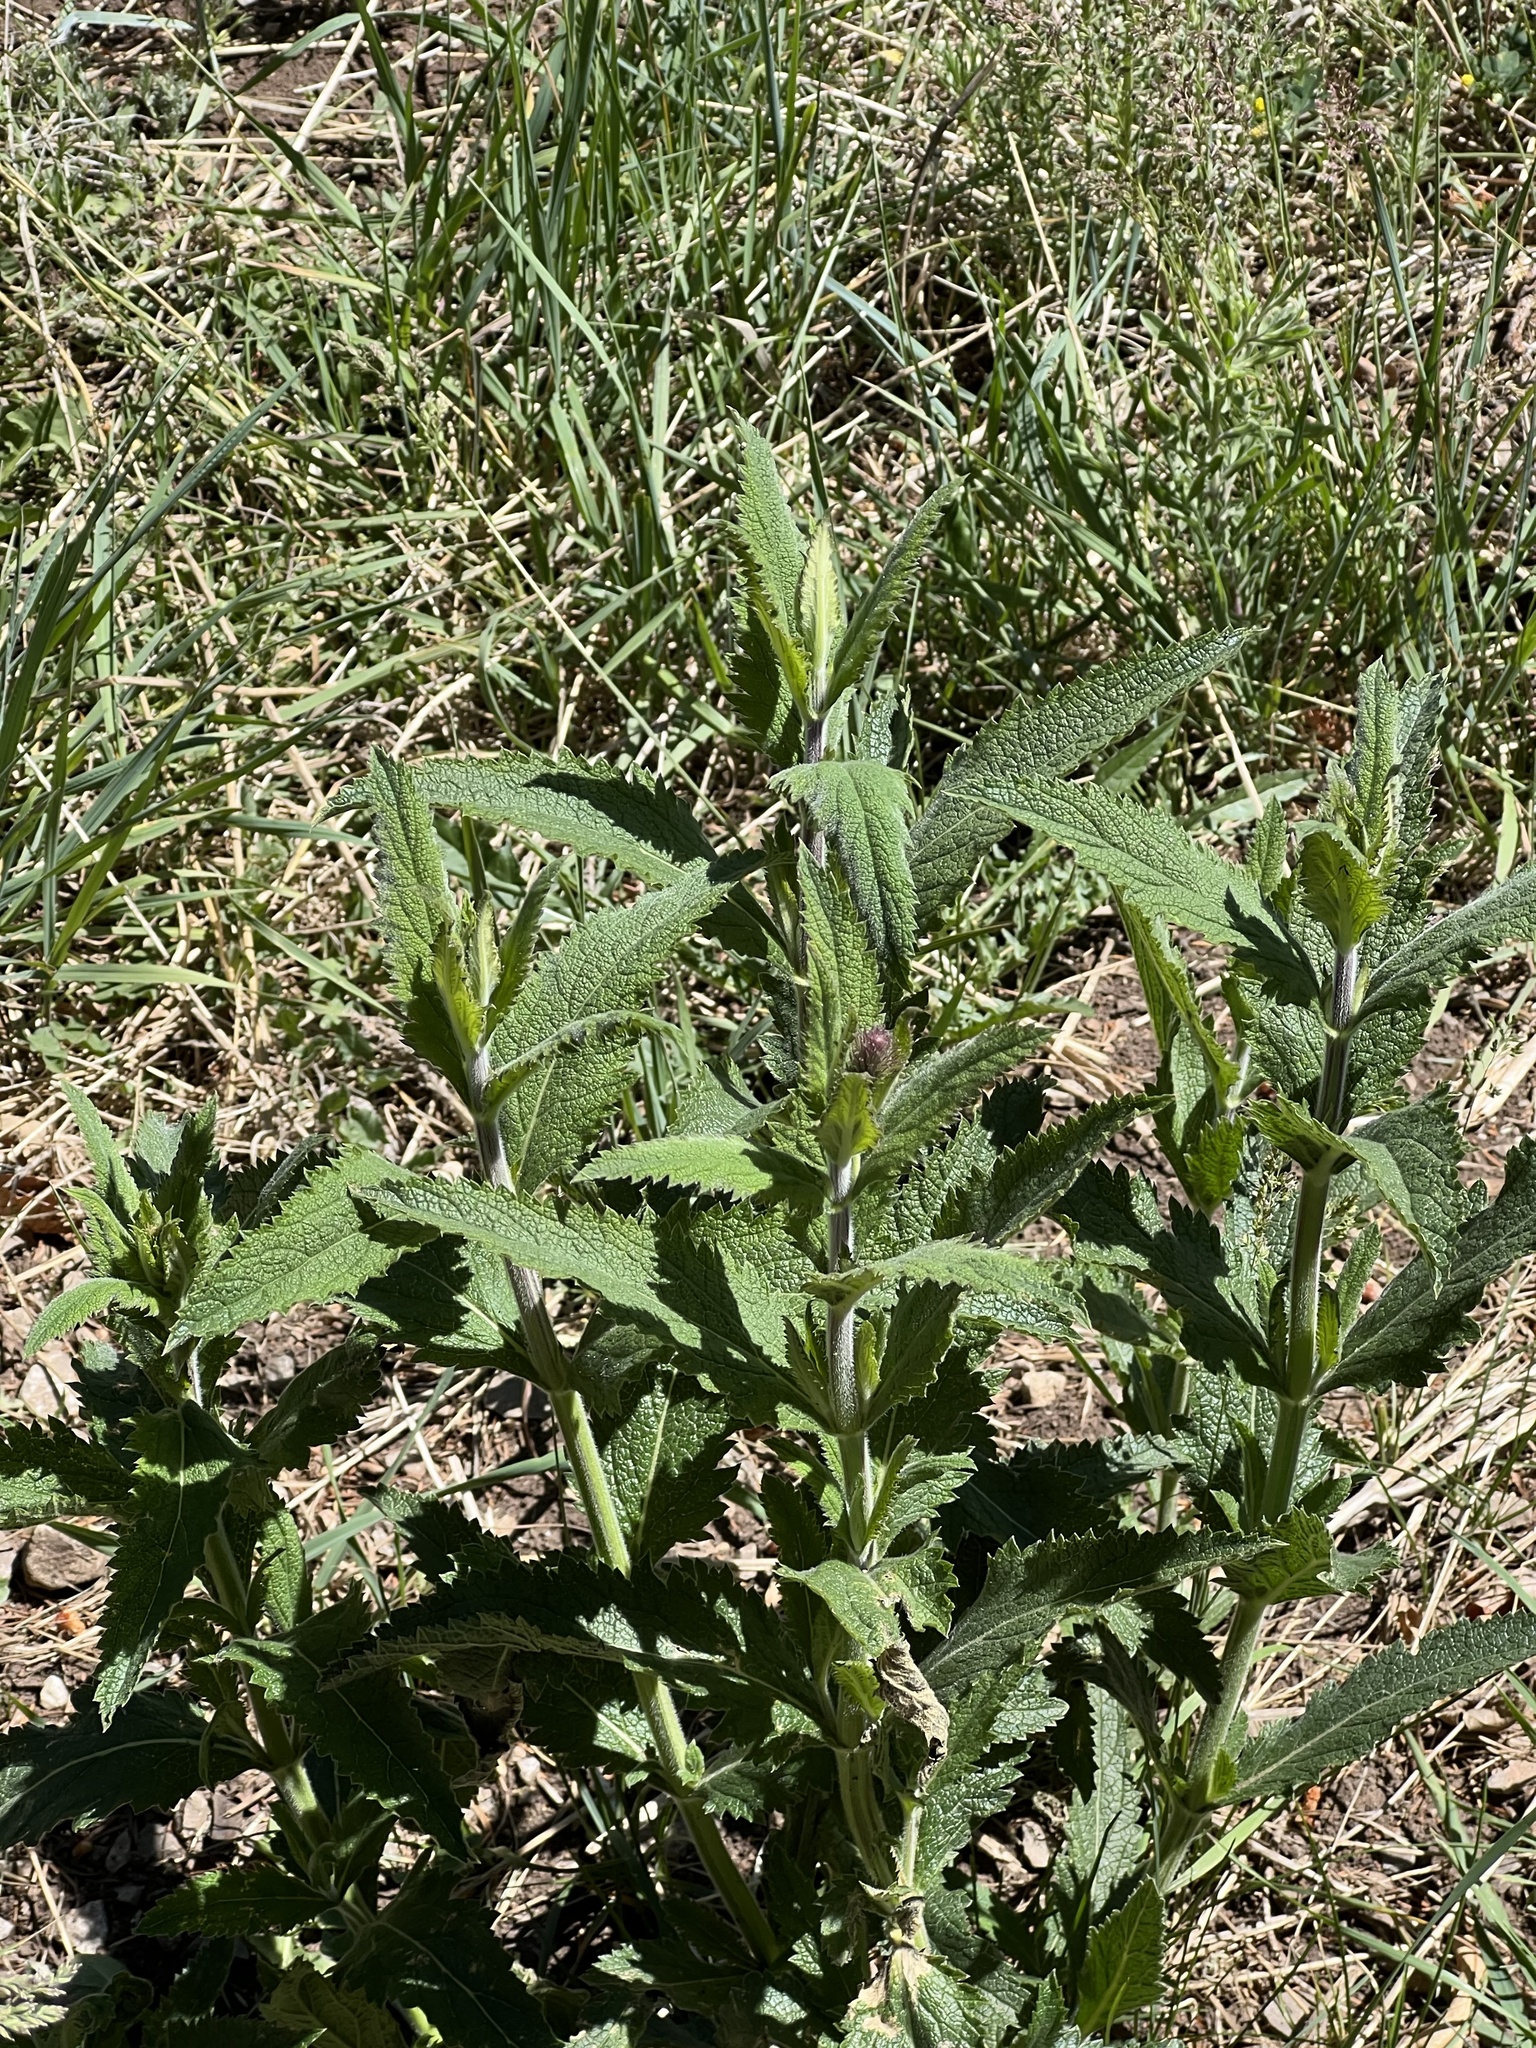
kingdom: Plantae
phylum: Tracheophyta
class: Magnoliopsida
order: Lamiales
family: Verbenaceae
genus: Verbena
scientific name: Verbena macdougalii
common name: New mexico vervain
